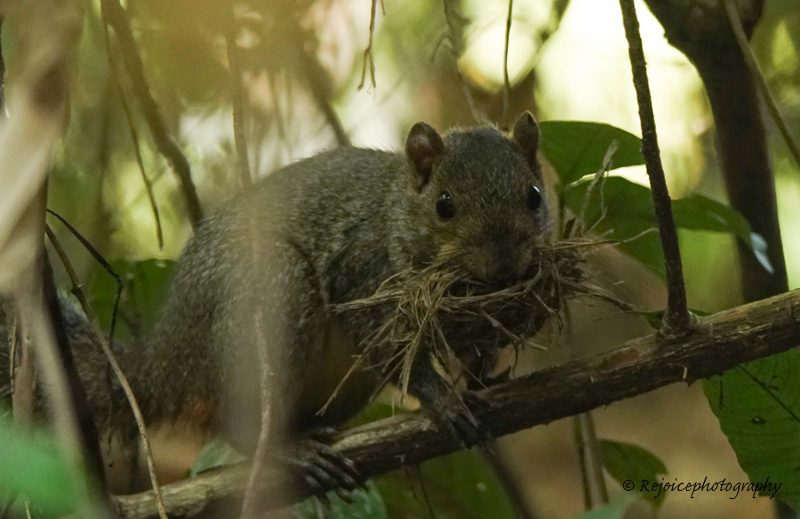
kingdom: Animalia
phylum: Chordata
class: Mammalia
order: Rodentia
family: Sciuridae
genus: Dremomys
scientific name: Dremomys lokriah
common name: Orange-bellied himalayan squirrel
